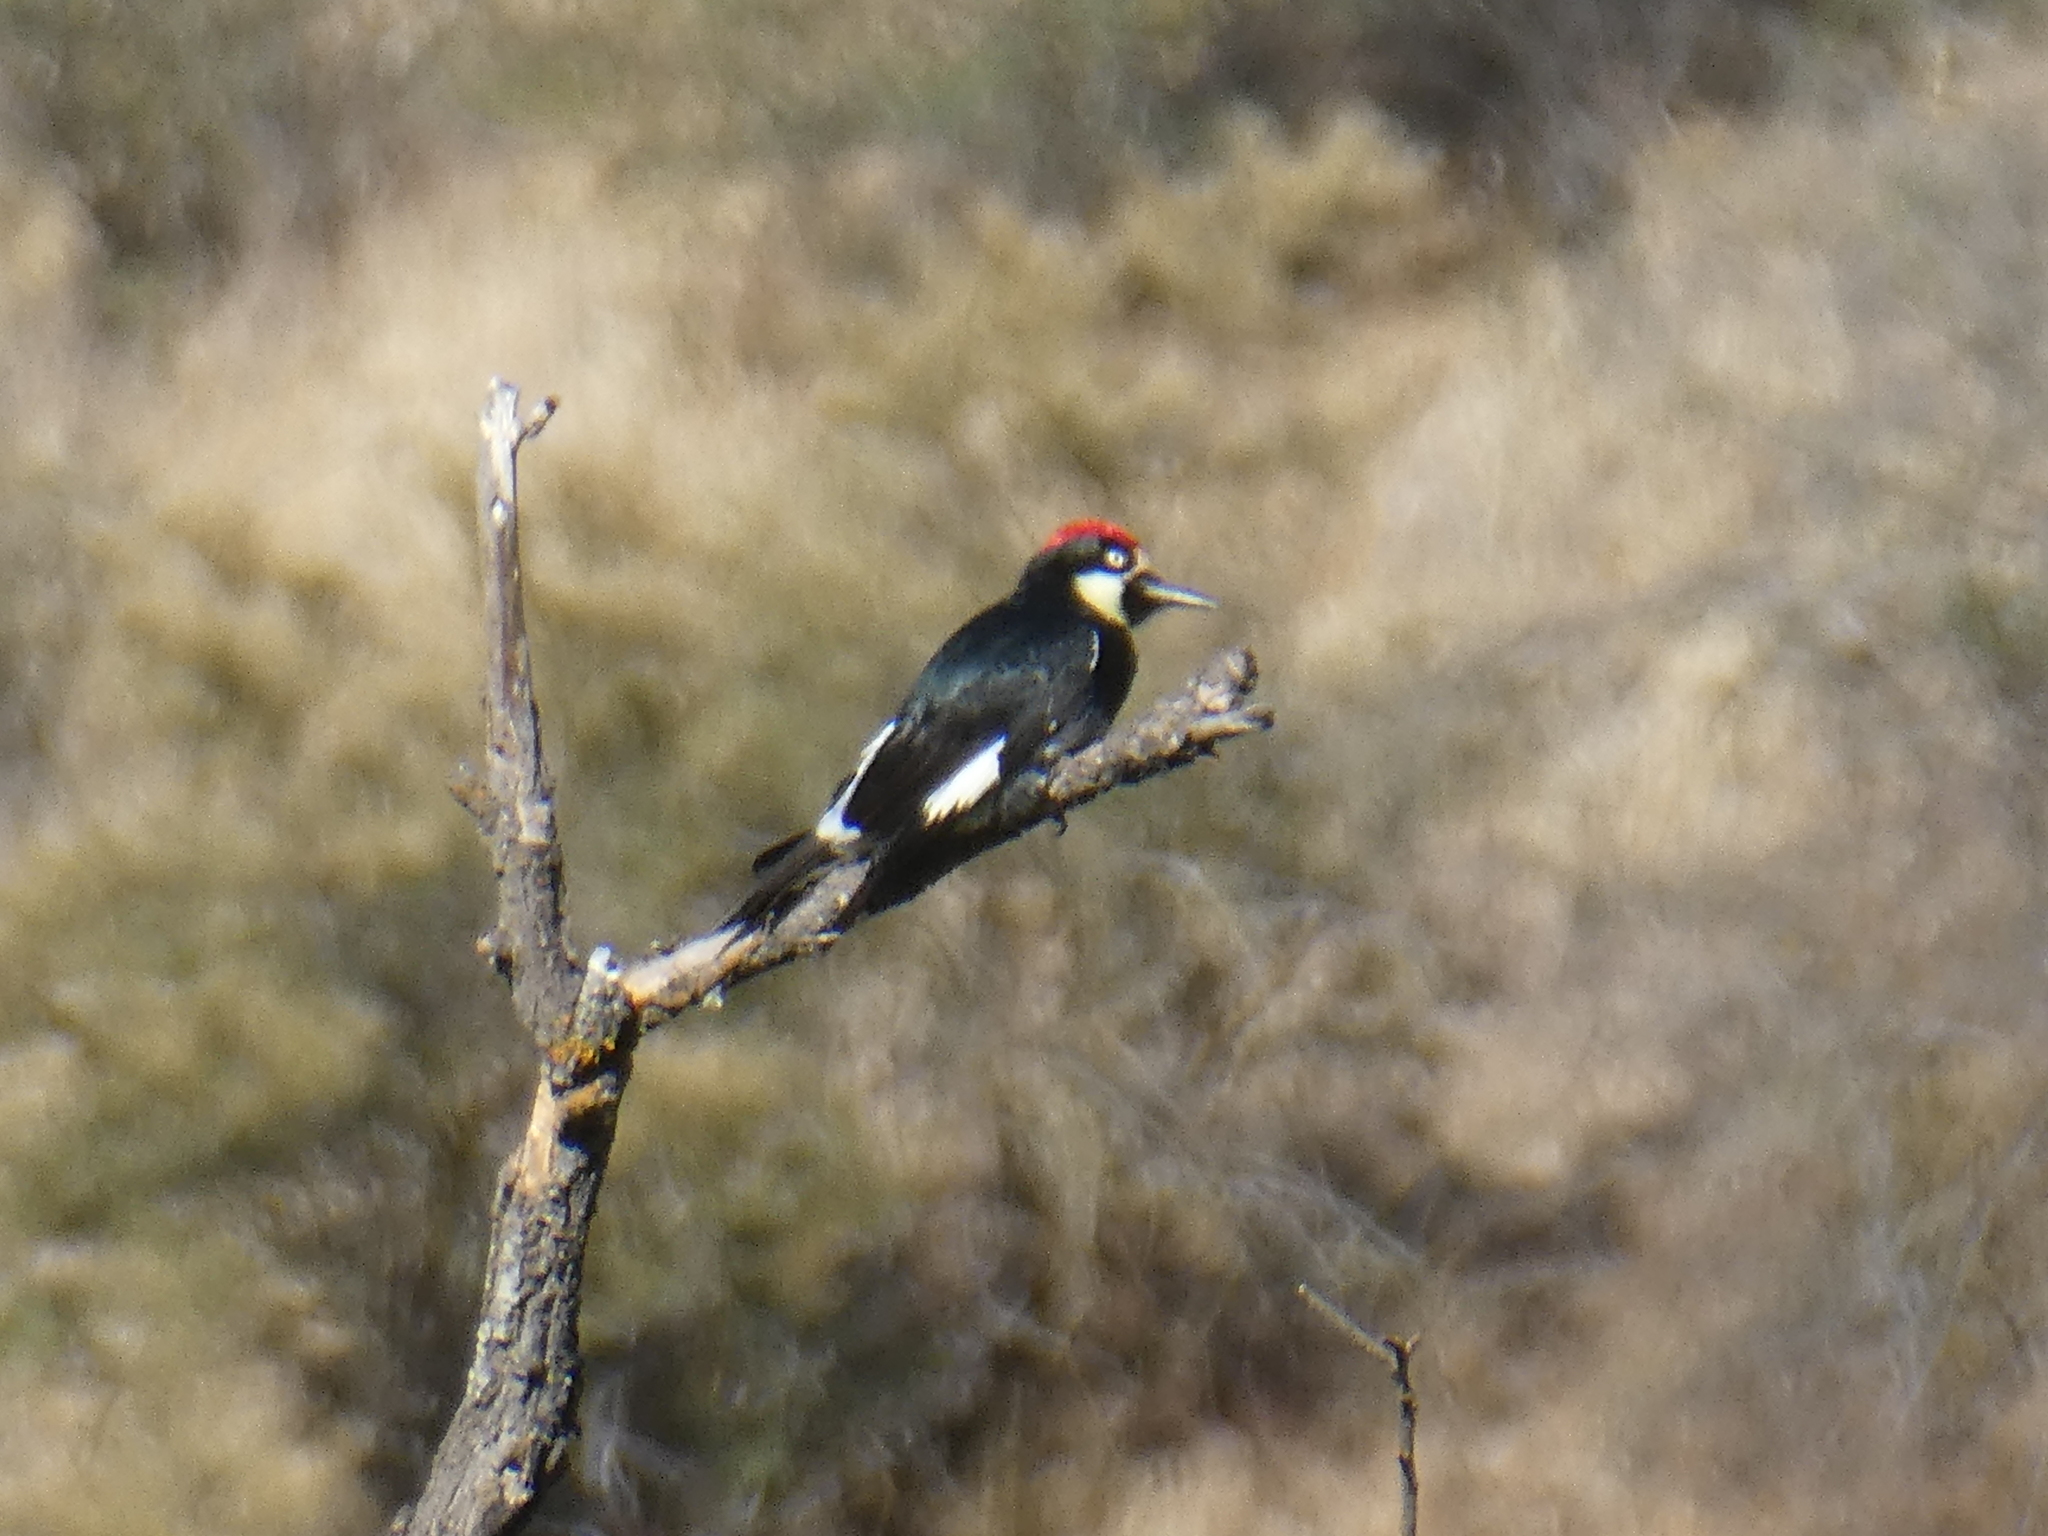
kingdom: Animalia
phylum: Chordata
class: Aves
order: Piciformes
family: Picidae
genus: Melanerpes
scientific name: Melanerpes formicivorus
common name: Acorn woodpecker
